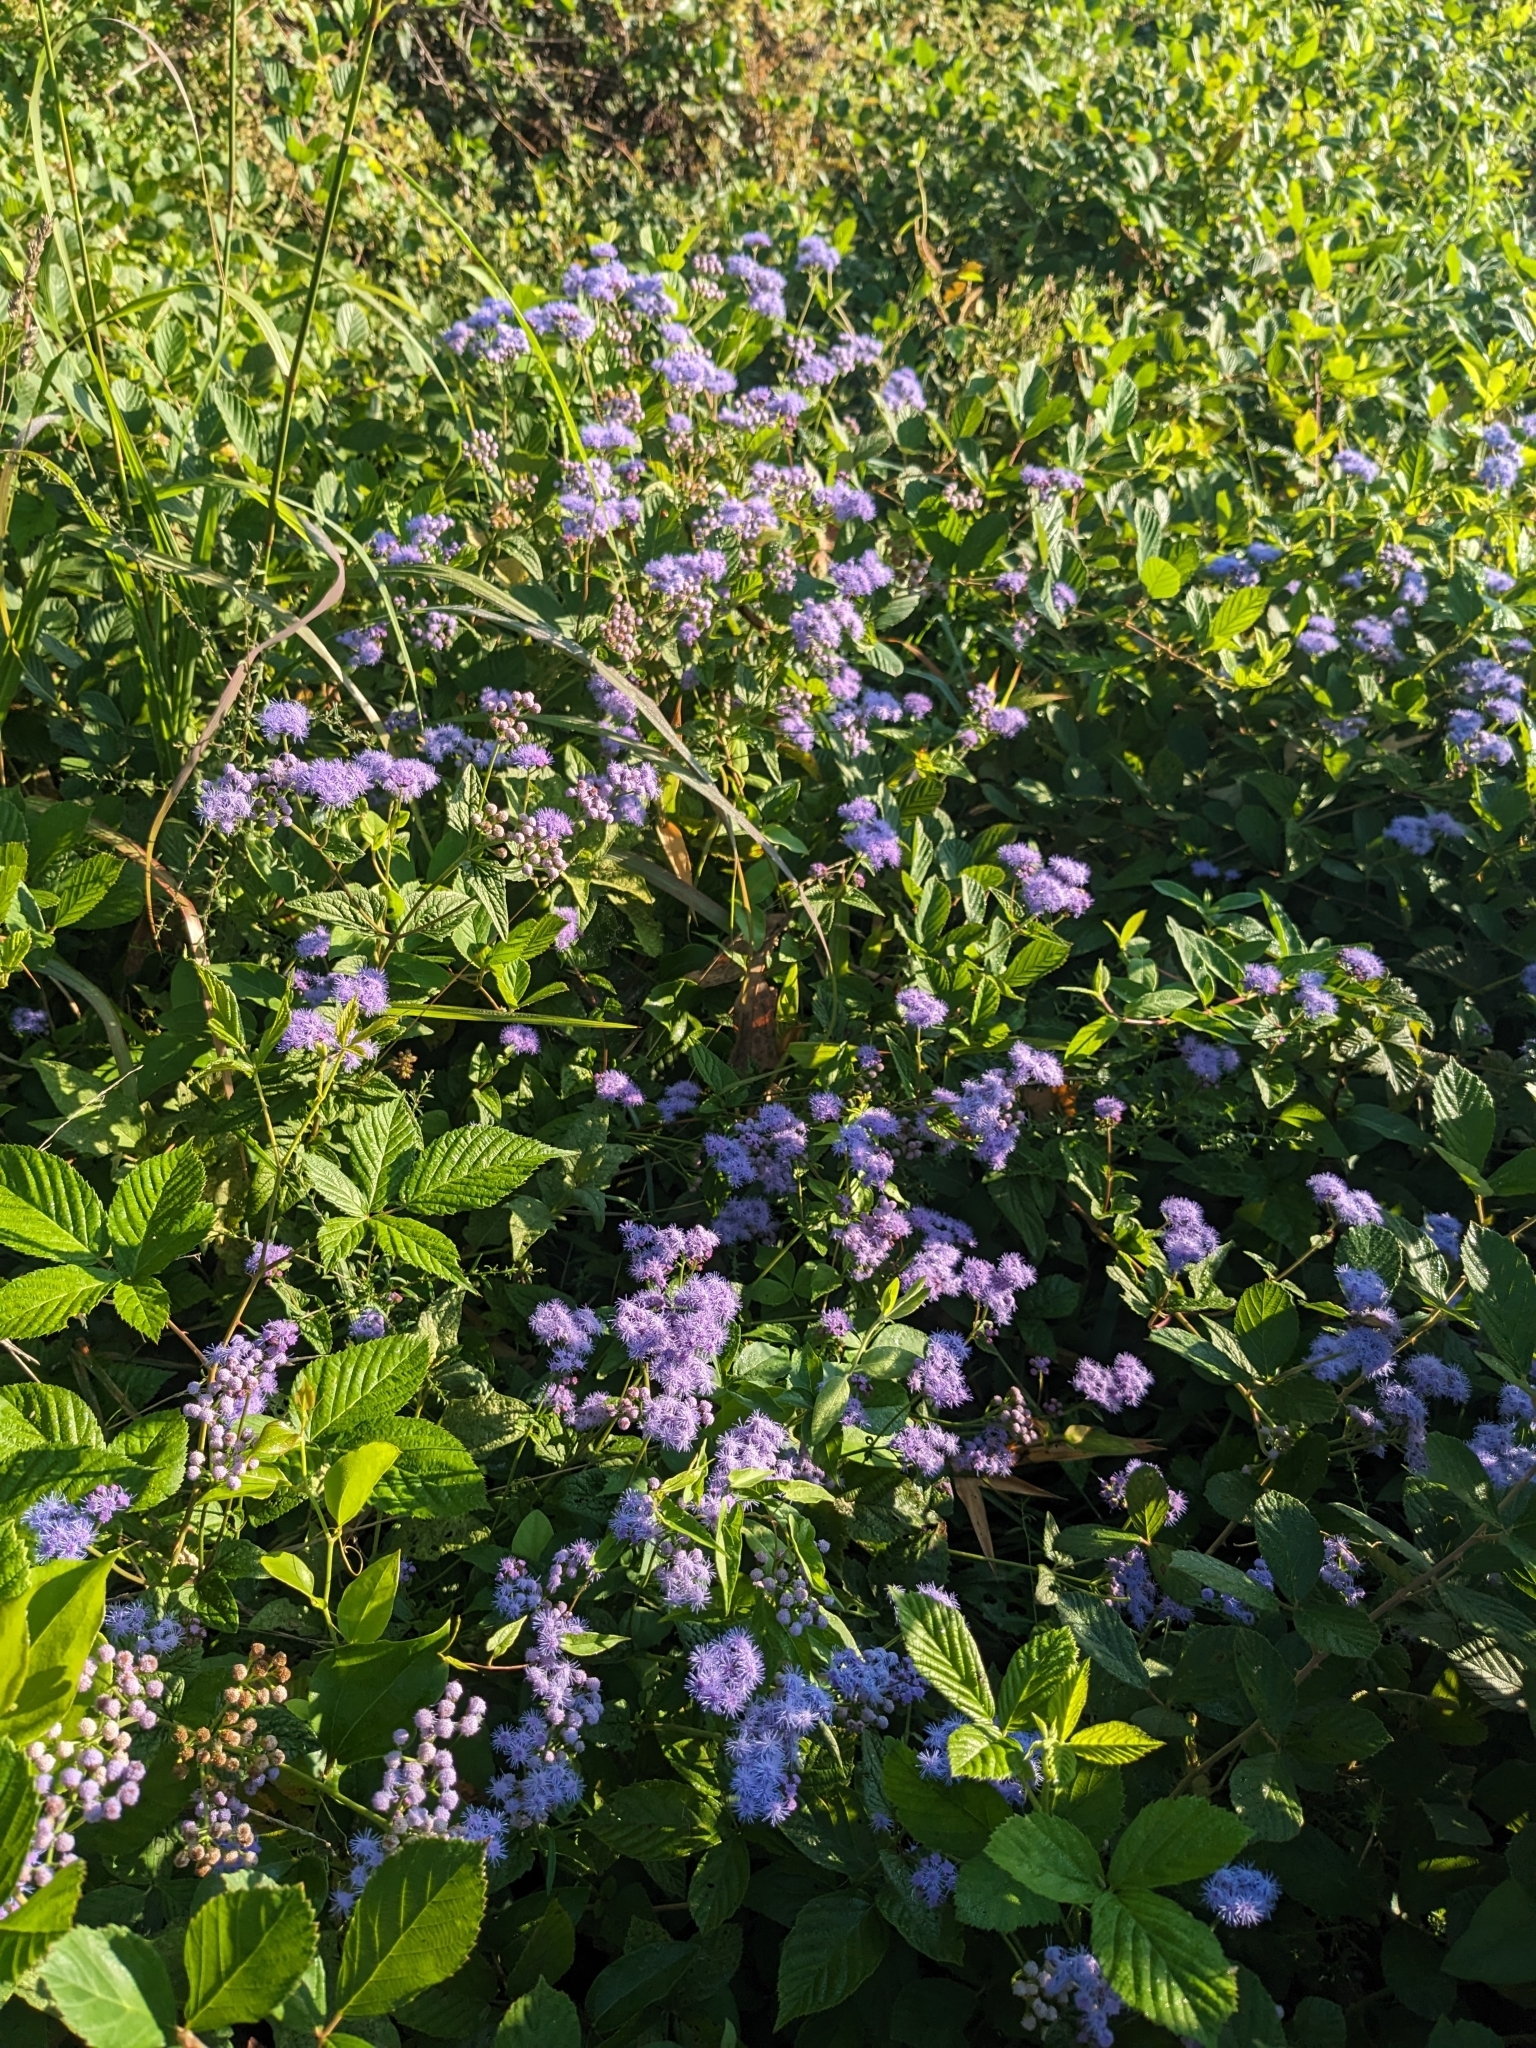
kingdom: Plantae
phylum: Tracheophyta
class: Magnoliopsida
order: Asterales
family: Asteraceae
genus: Conoclinium
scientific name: Conoclinium coelestinum
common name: Blue mistflower
